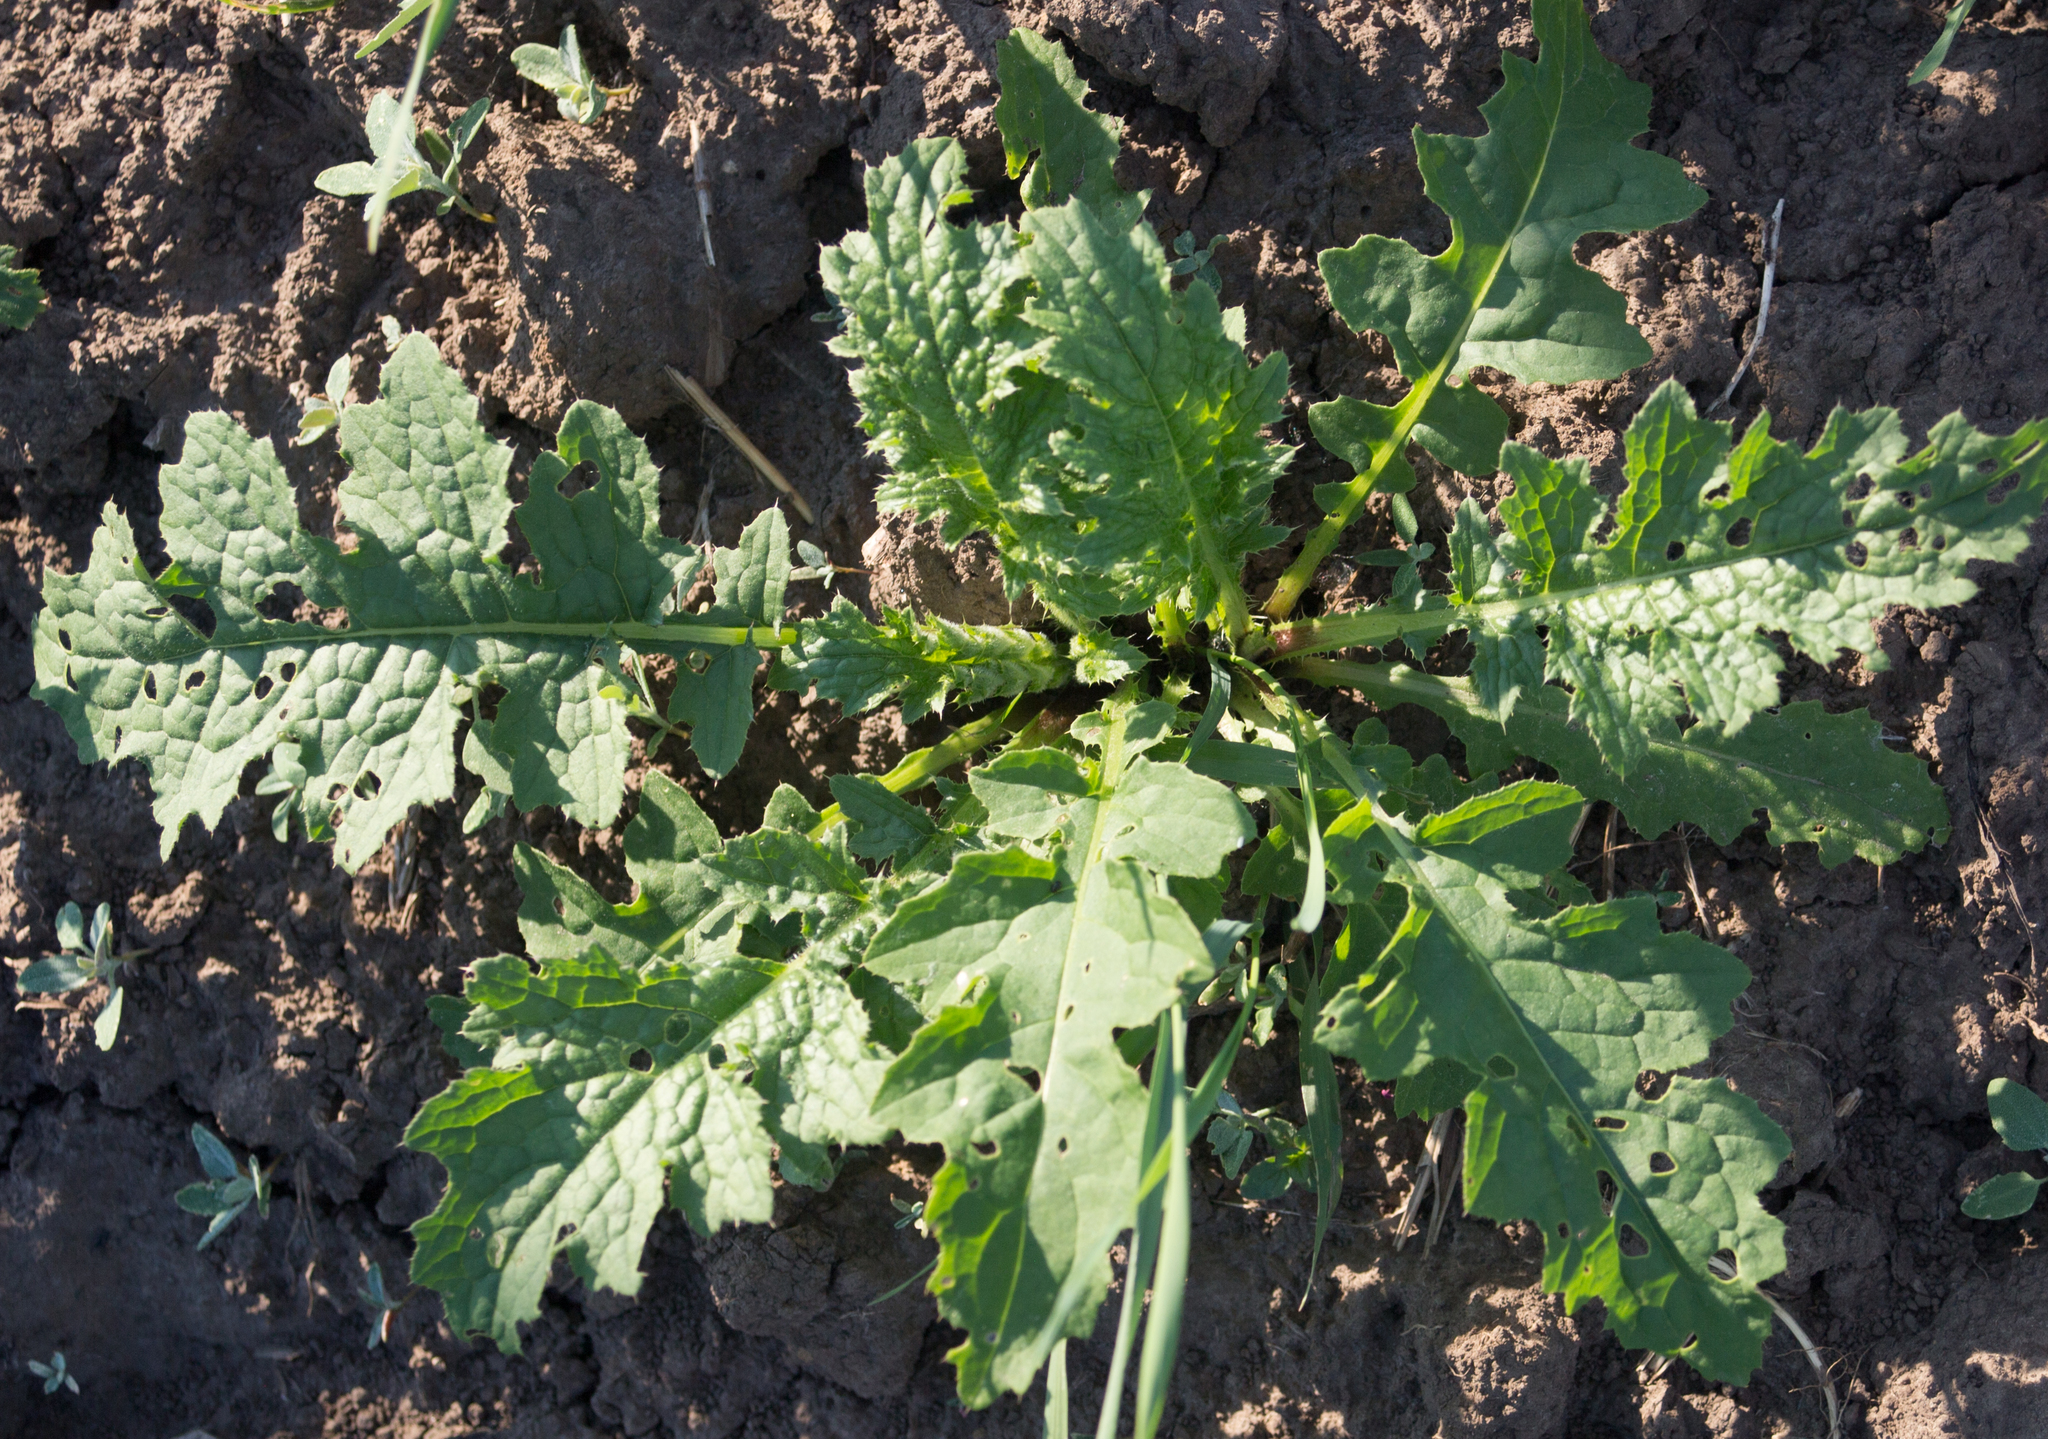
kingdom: Plantae
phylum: Tracheophyta
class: Magnoliopsida
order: Asterales
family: Asteraceae
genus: Carduus
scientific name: Carduus crispus
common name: Welted thistle
